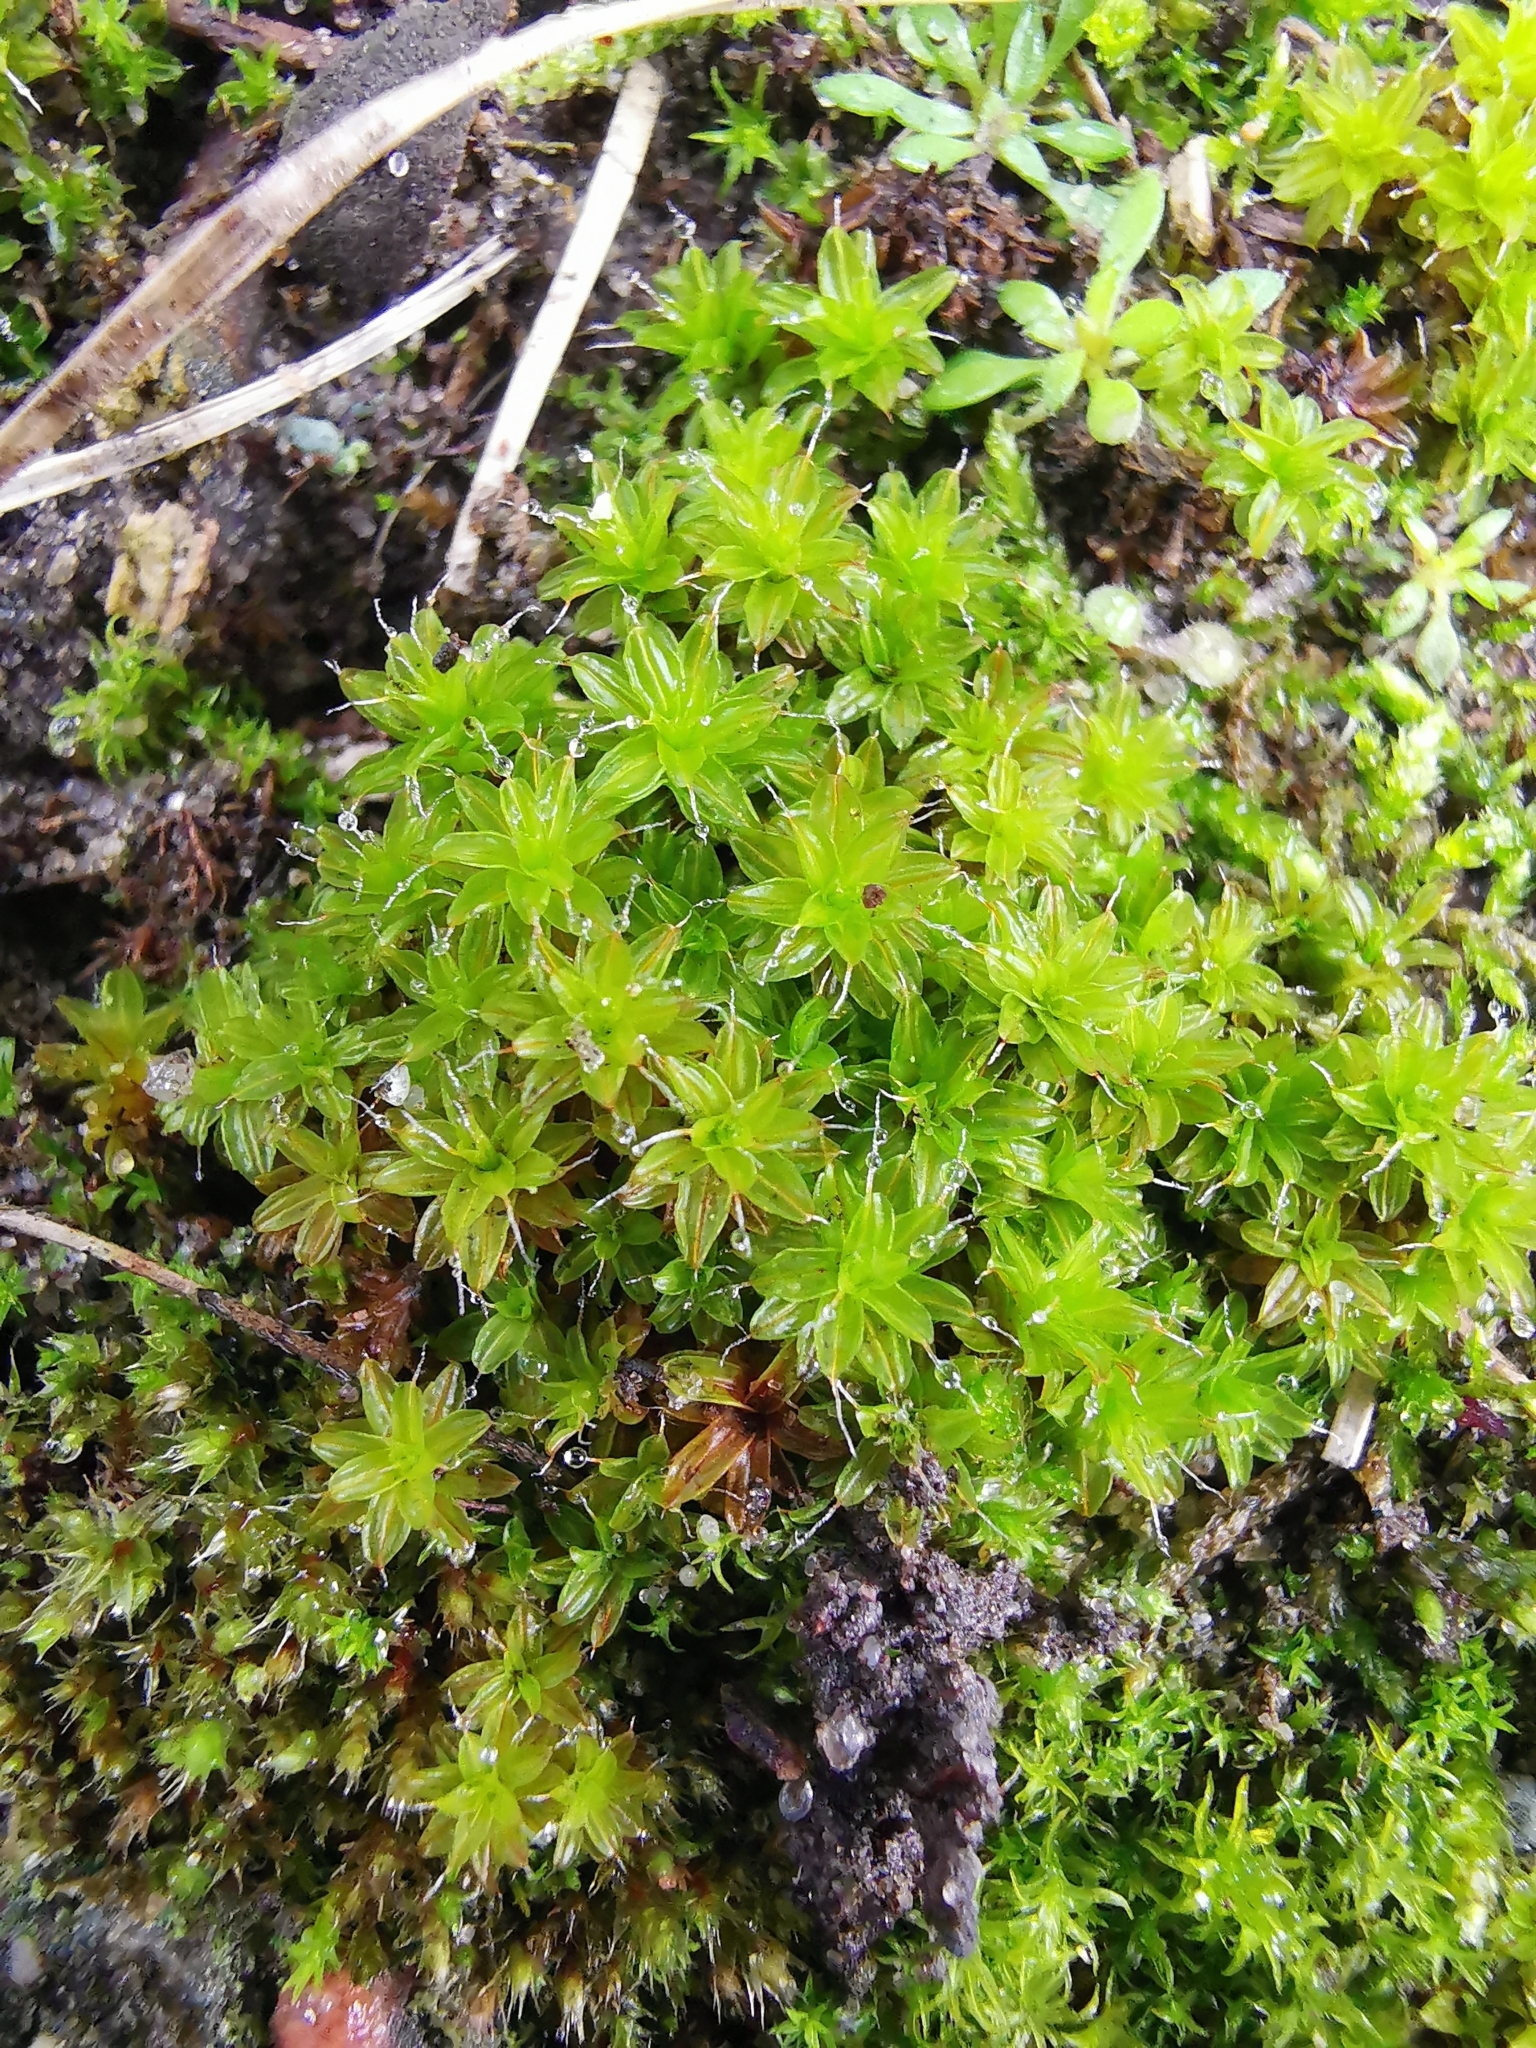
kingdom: Plantae
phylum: Bryophyta
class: Bryopsida
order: Pottiales
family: Pottiaceae
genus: Syntrichia
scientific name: Syntrichia ruralis
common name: Sidewalk screw moss
